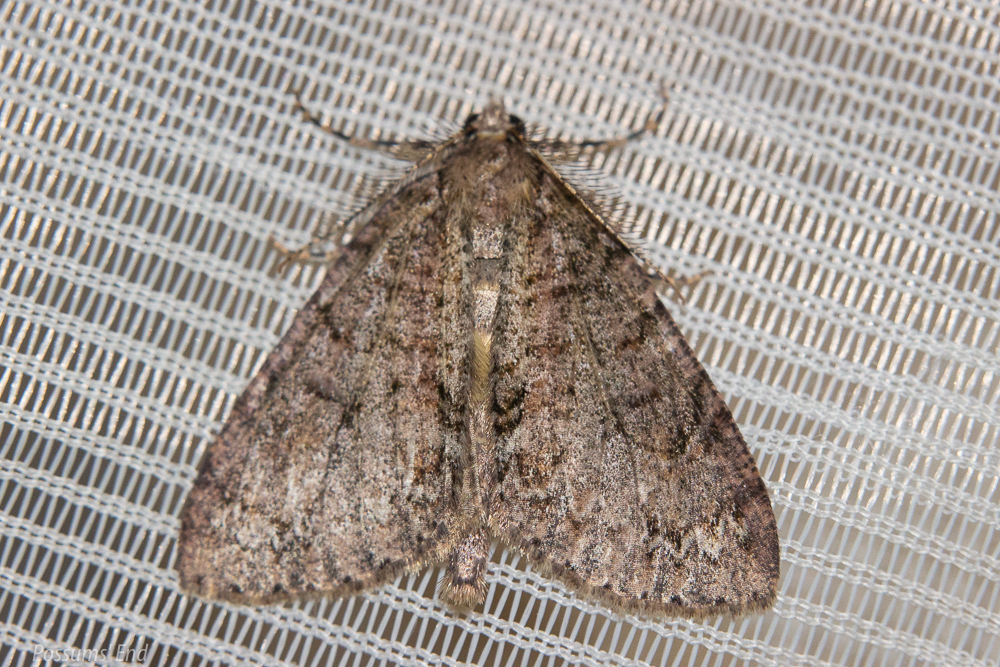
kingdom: Animalia
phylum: Arthropoda
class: Insecta
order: Lepidoptera
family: Geometridae
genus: Pseudocoremia
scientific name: Pseudocoremia suavis
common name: Common forest looper
